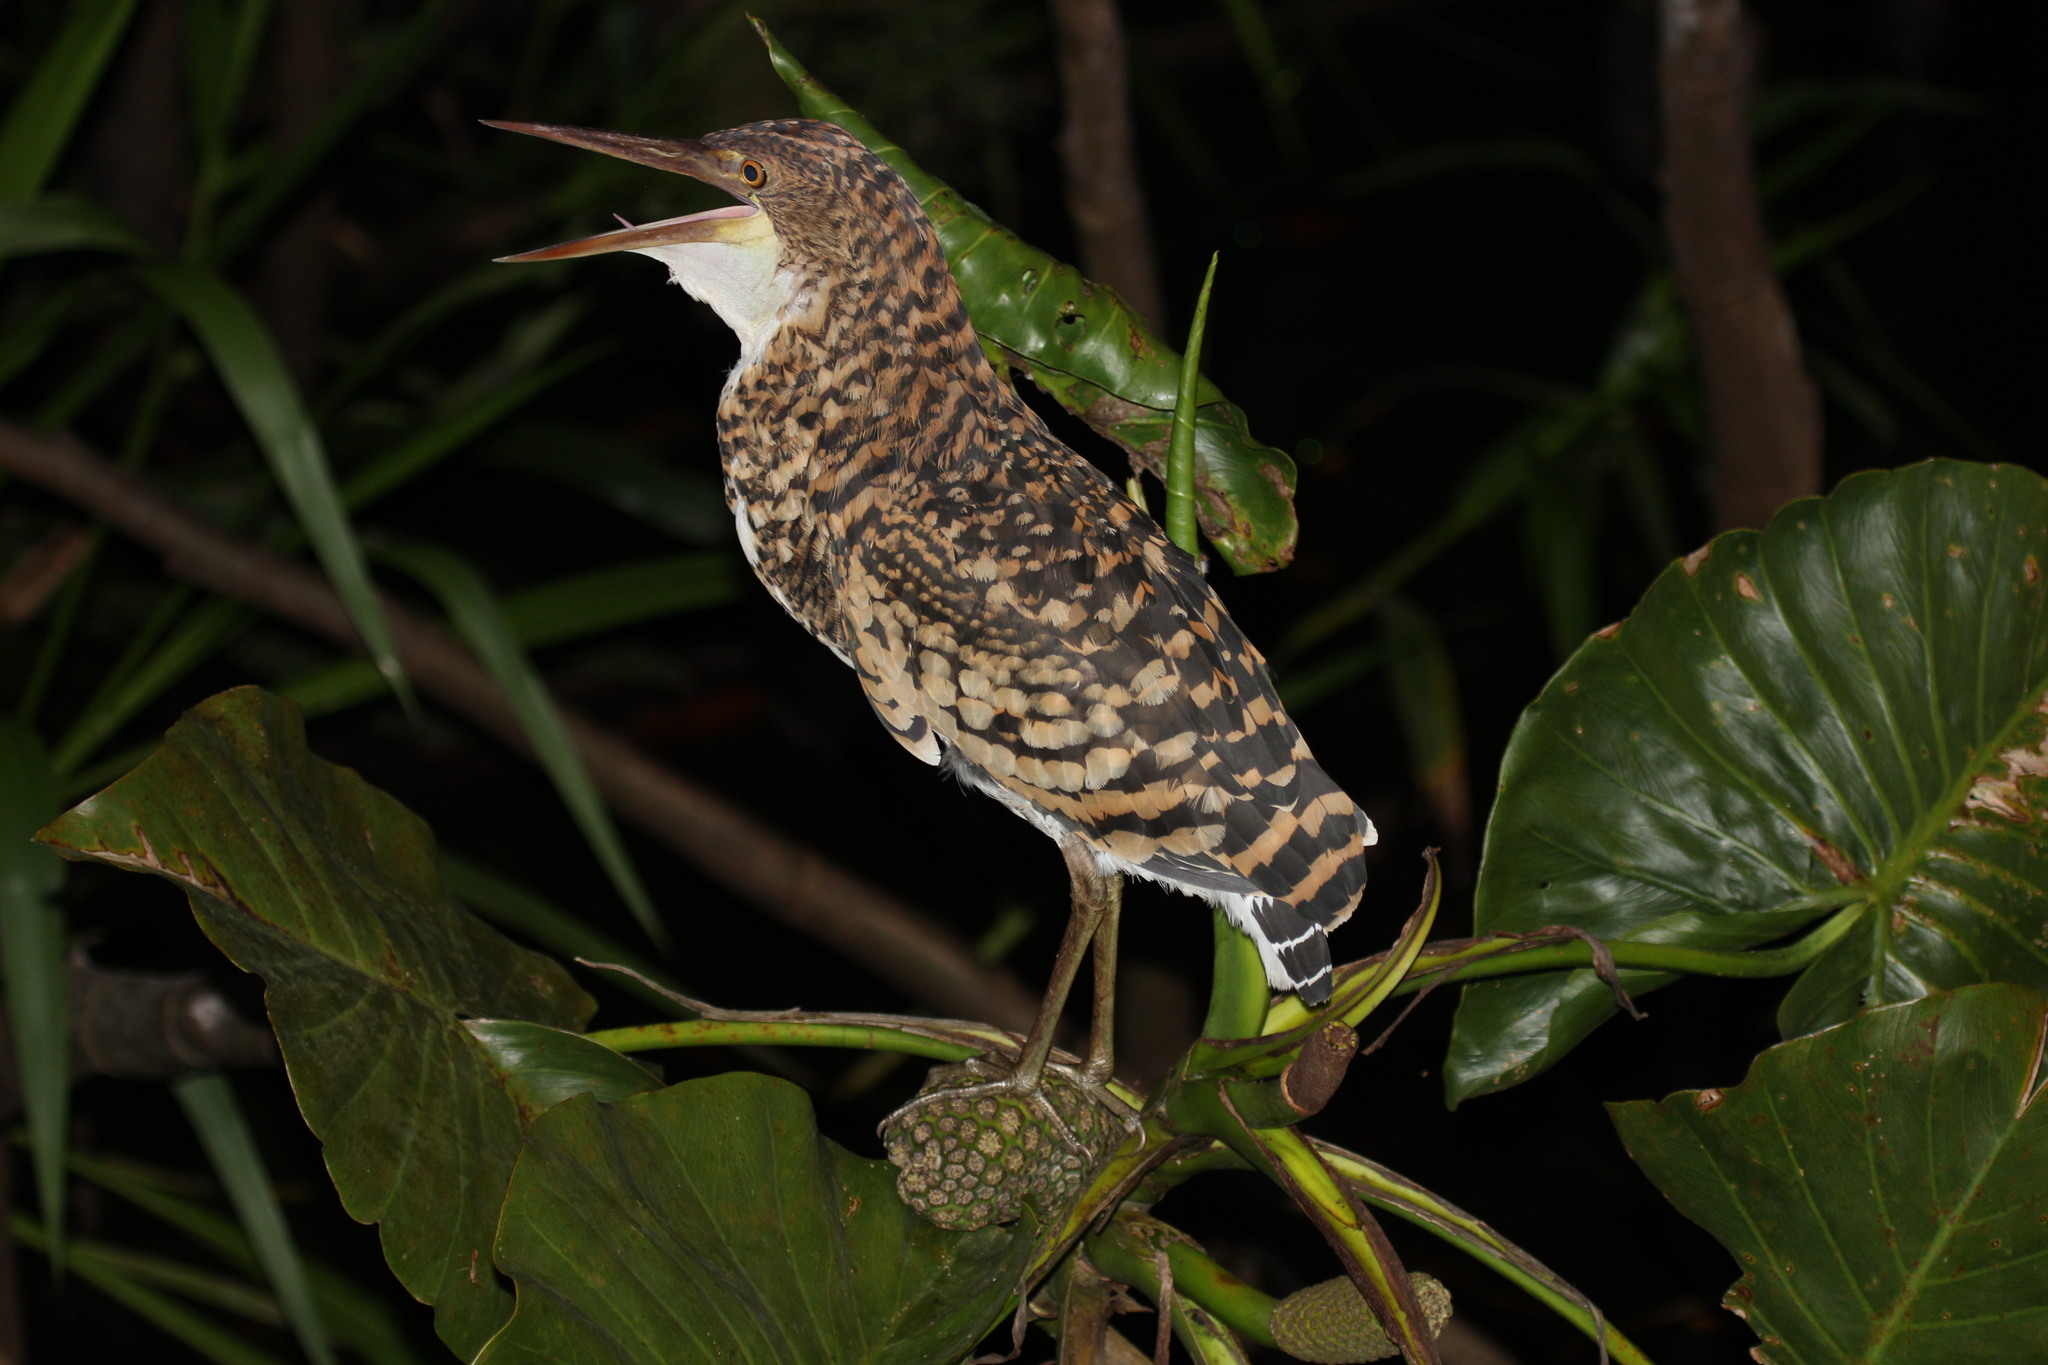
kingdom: Animalia
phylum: Chordata
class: Aves
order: Pelecaniformes
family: Ardeidae
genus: Tigrisoma
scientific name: Tigrisoma lineatum
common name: Rufescent tiger-heron
